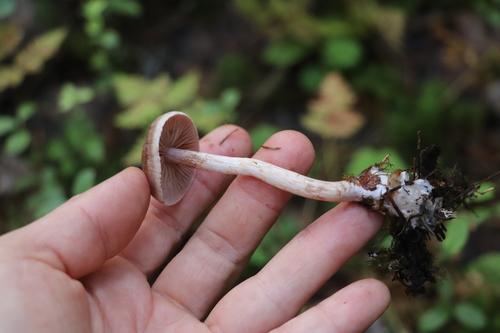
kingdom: Fungi
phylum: Basidiomycota
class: Agaricomycetes
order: Agaricales
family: Cortinariaceae
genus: Cortinarius
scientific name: Cortinarius anomalus
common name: Variable webcap
